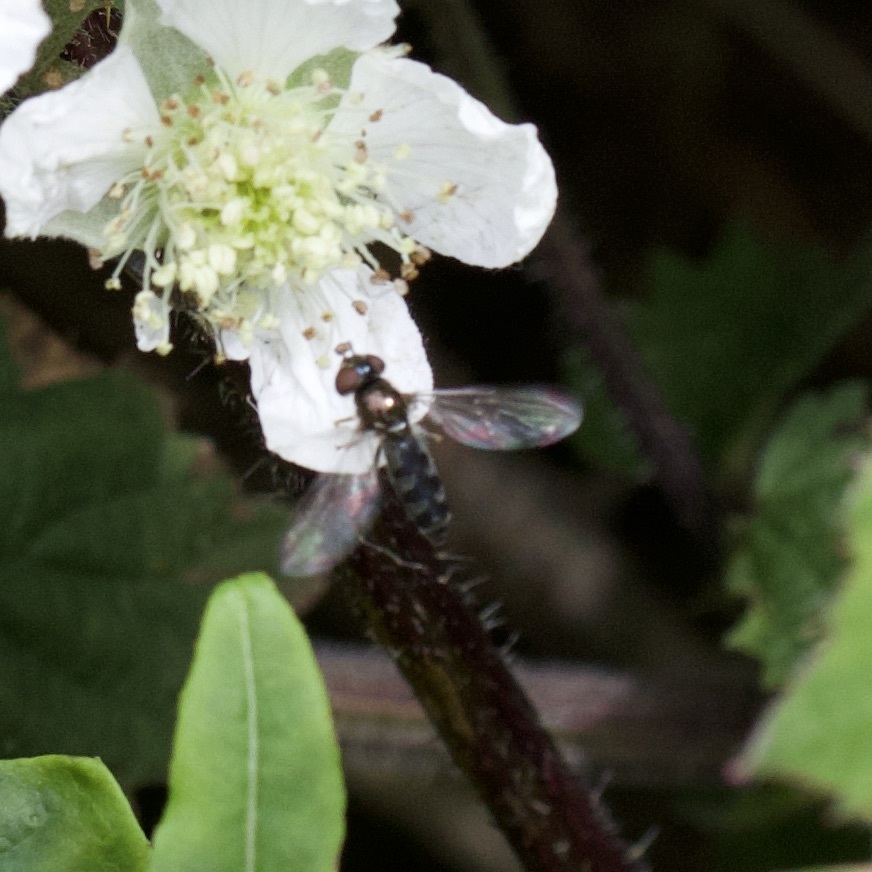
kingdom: Animalia
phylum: Arthropoda
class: Insecta
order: Diptera
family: Syrphidae
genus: Platycheirus
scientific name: Platycheirus albimanus
